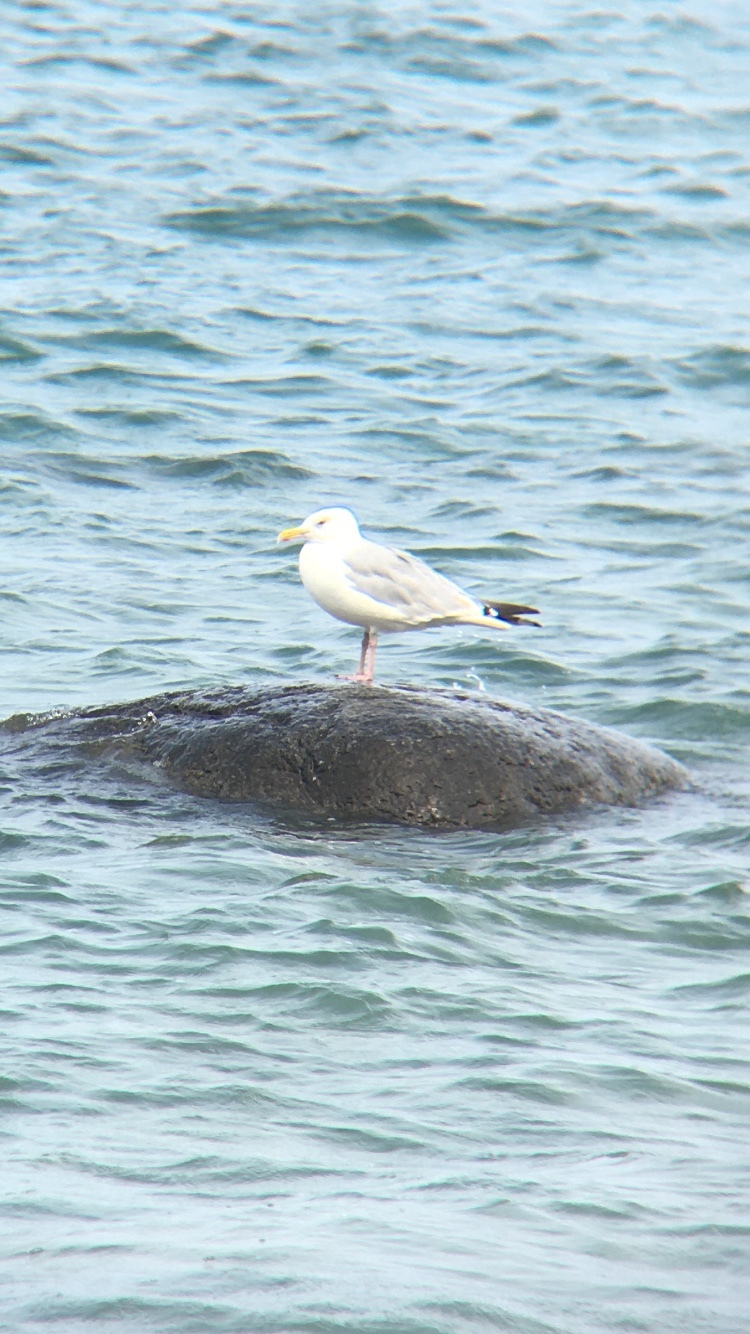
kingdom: Animalia
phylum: Chordata
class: Aves
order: Charadriiformes
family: Laridae
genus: Larus
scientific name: Larus argentatus
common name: Herring gull
